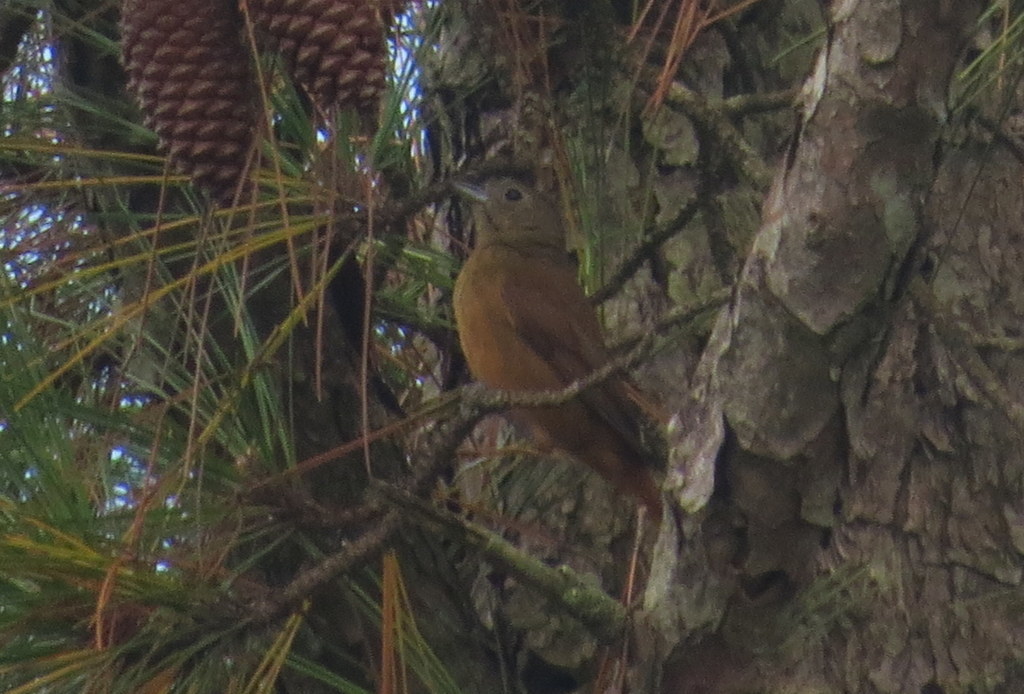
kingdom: Animalia
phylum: Chordata
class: Aves
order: Passeriformes
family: Thraupidae
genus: Tachyphonus
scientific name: Tachyphonus coronatus
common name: Ruby-crowned tanager
